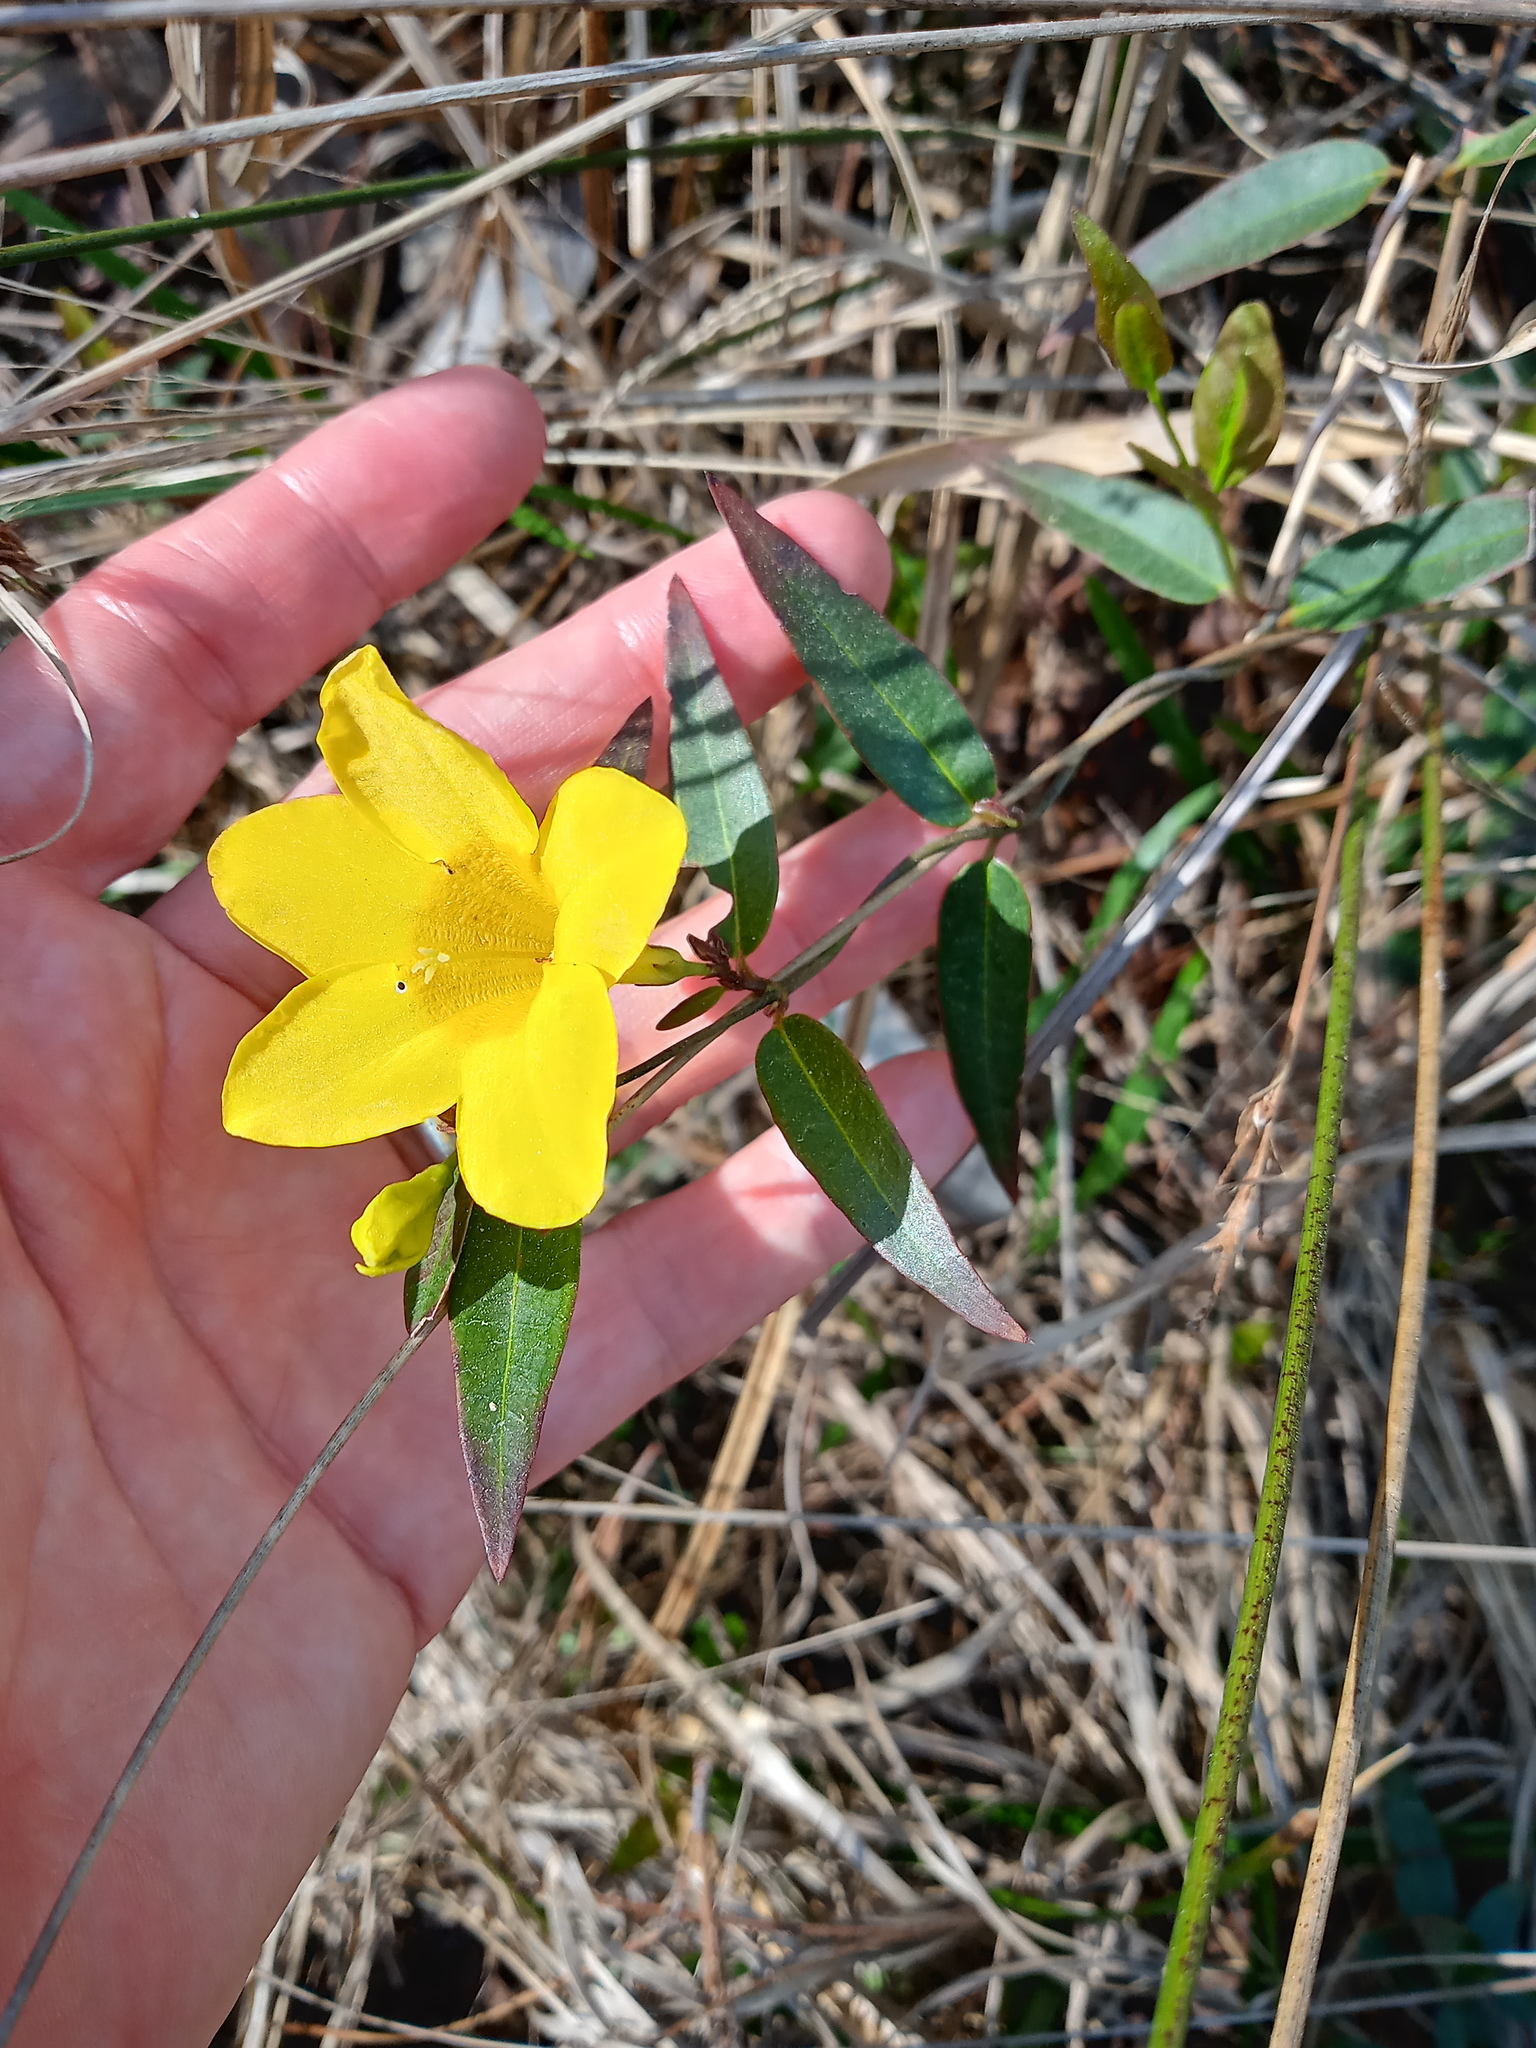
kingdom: Plantae
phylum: Tracheophyta
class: Magnoliopsida
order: Gentianales
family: Gelsemiaceae
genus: Gelsemium
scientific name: Gelsemium sempervirens
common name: Carolina-jasmine
